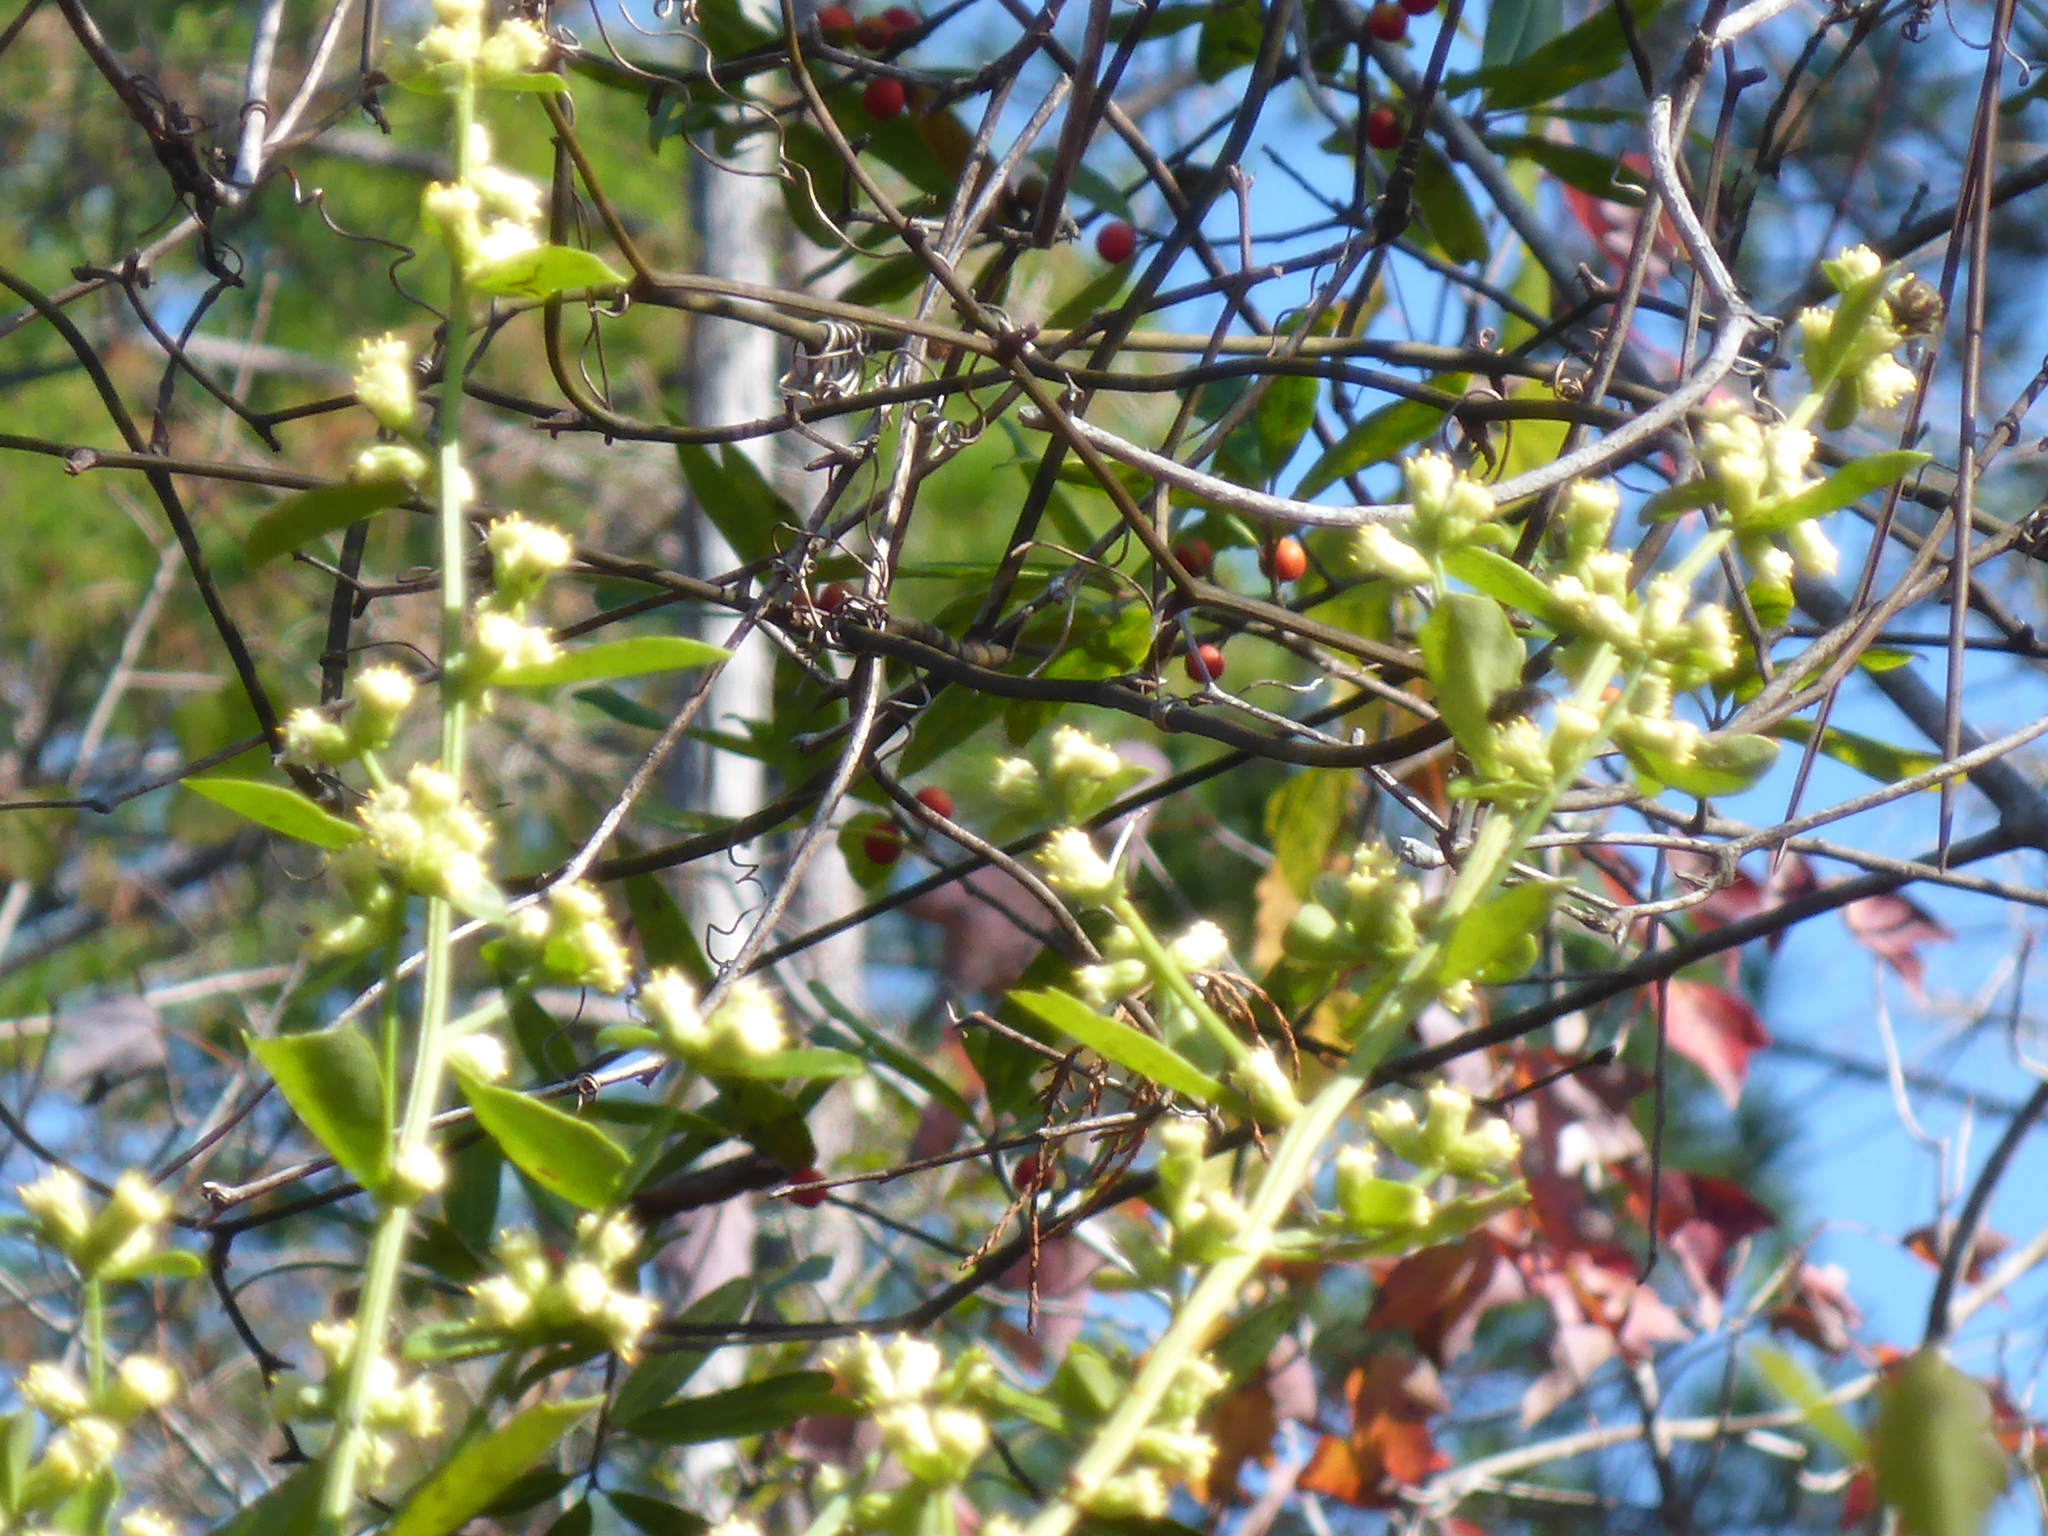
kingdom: Plantae
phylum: Tracheophyta
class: Magnoliopsida
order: Asterales
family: Asteraceae
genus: Baccharis
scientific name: Baccharis glomeruliflora
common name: Silverling groundsel bush
